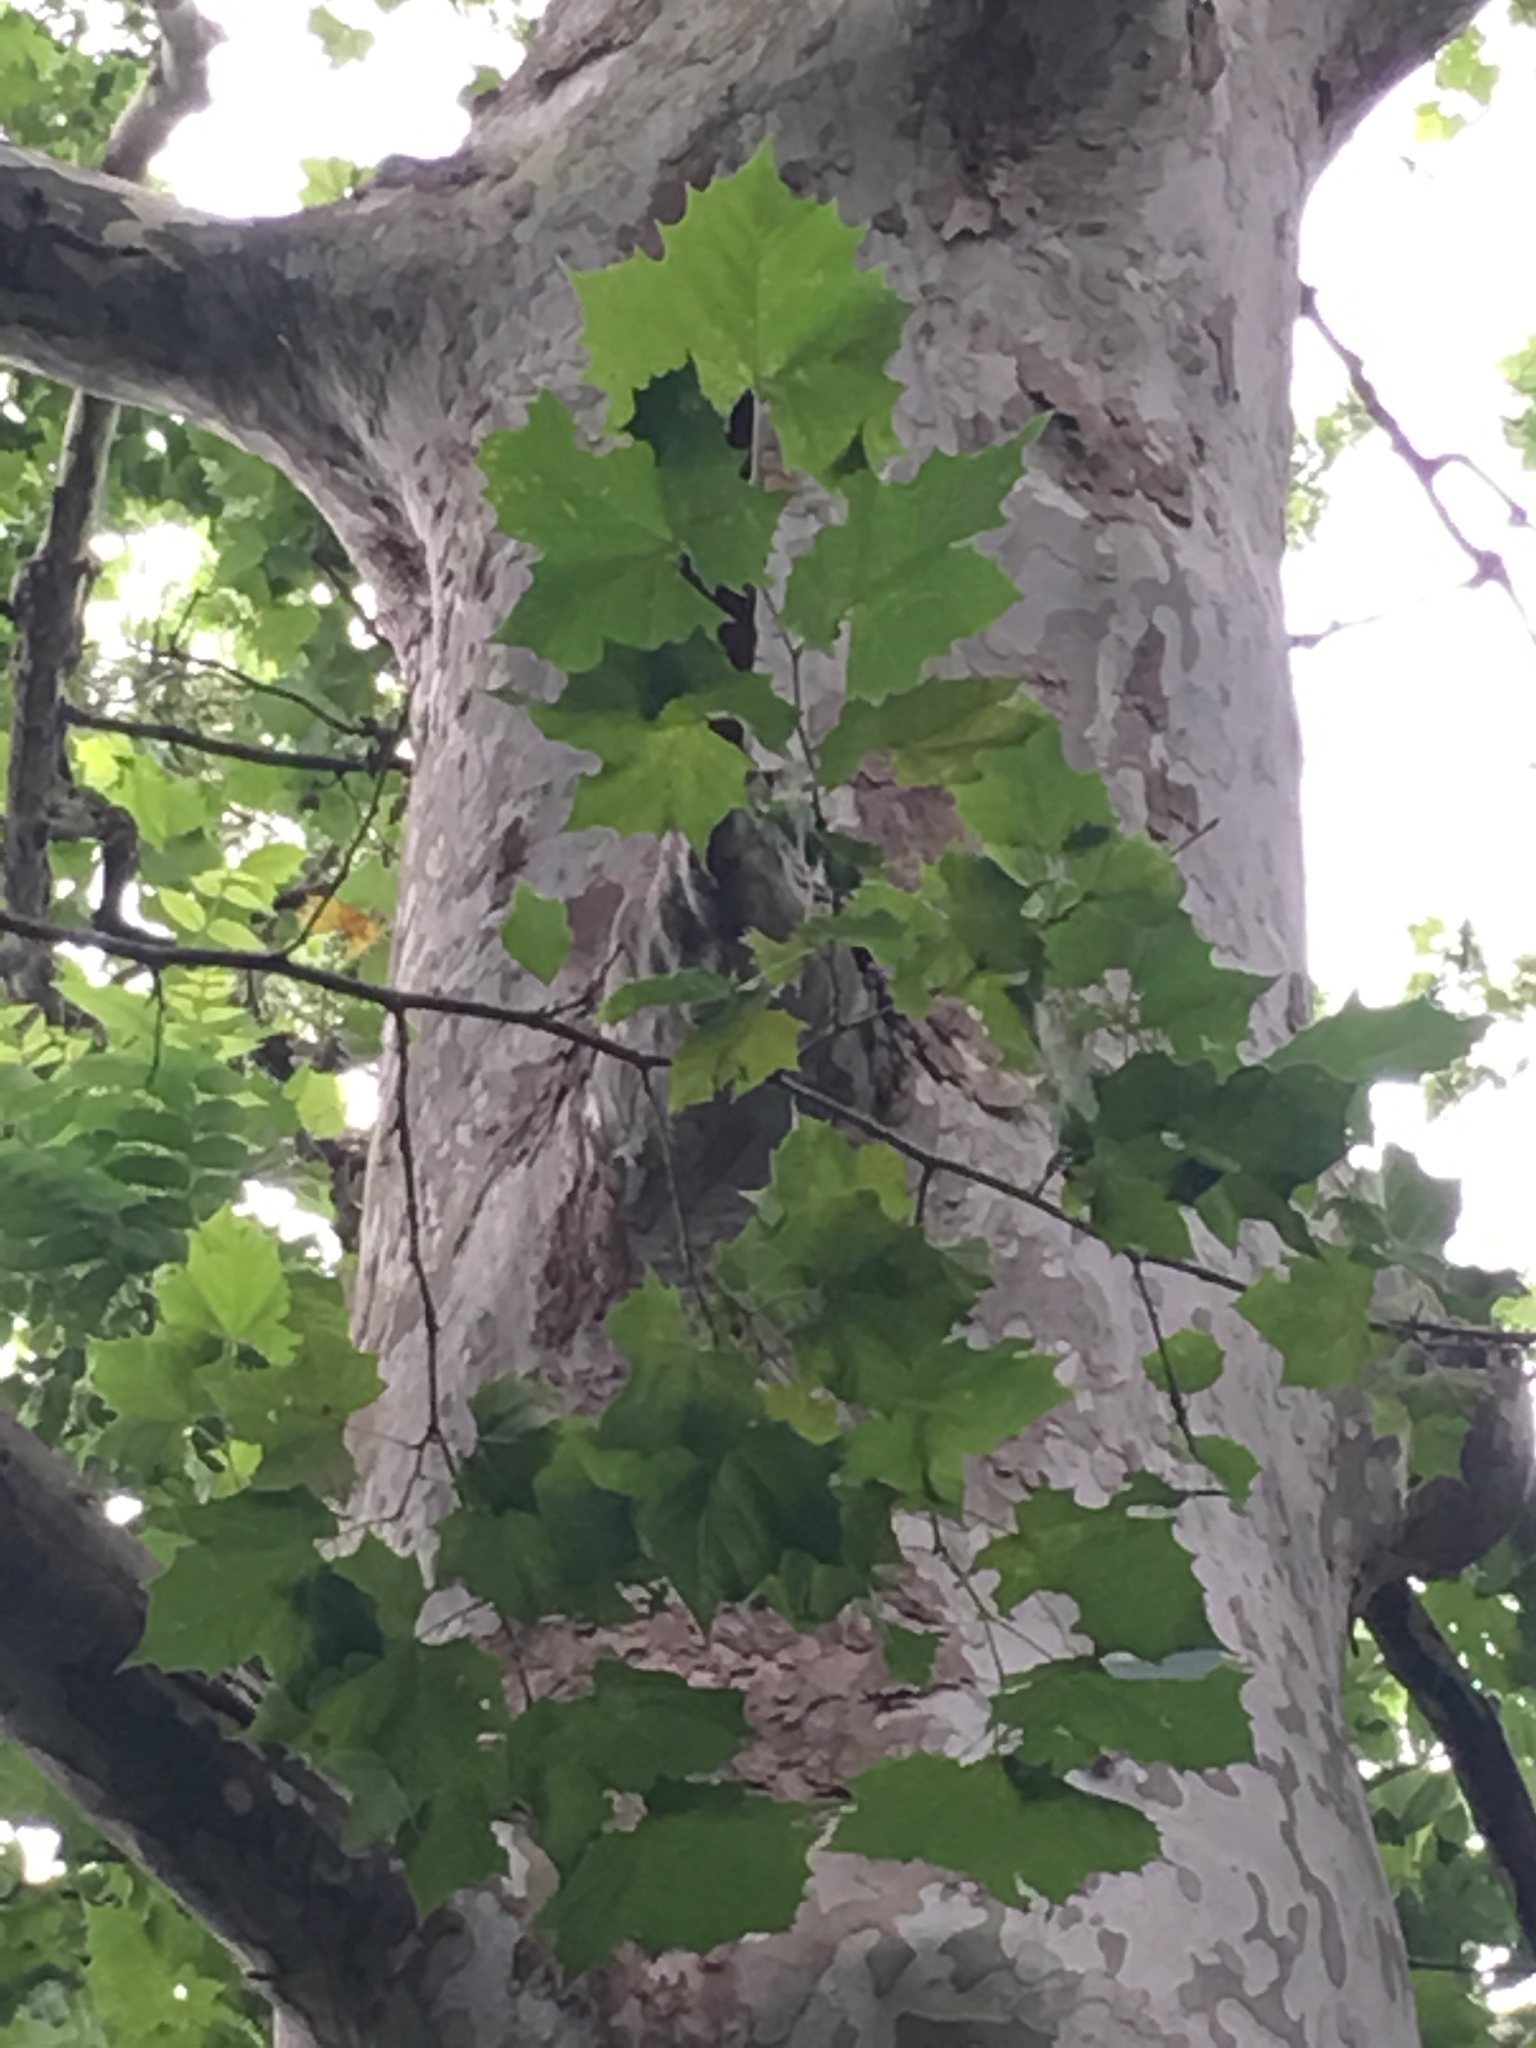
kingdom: Plantae
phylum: Tracheophyta
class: Magnoliopsida
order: Proteales
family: Platanaceae
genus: Platanus
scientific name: Platanus occidentalis
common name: American sycamore
